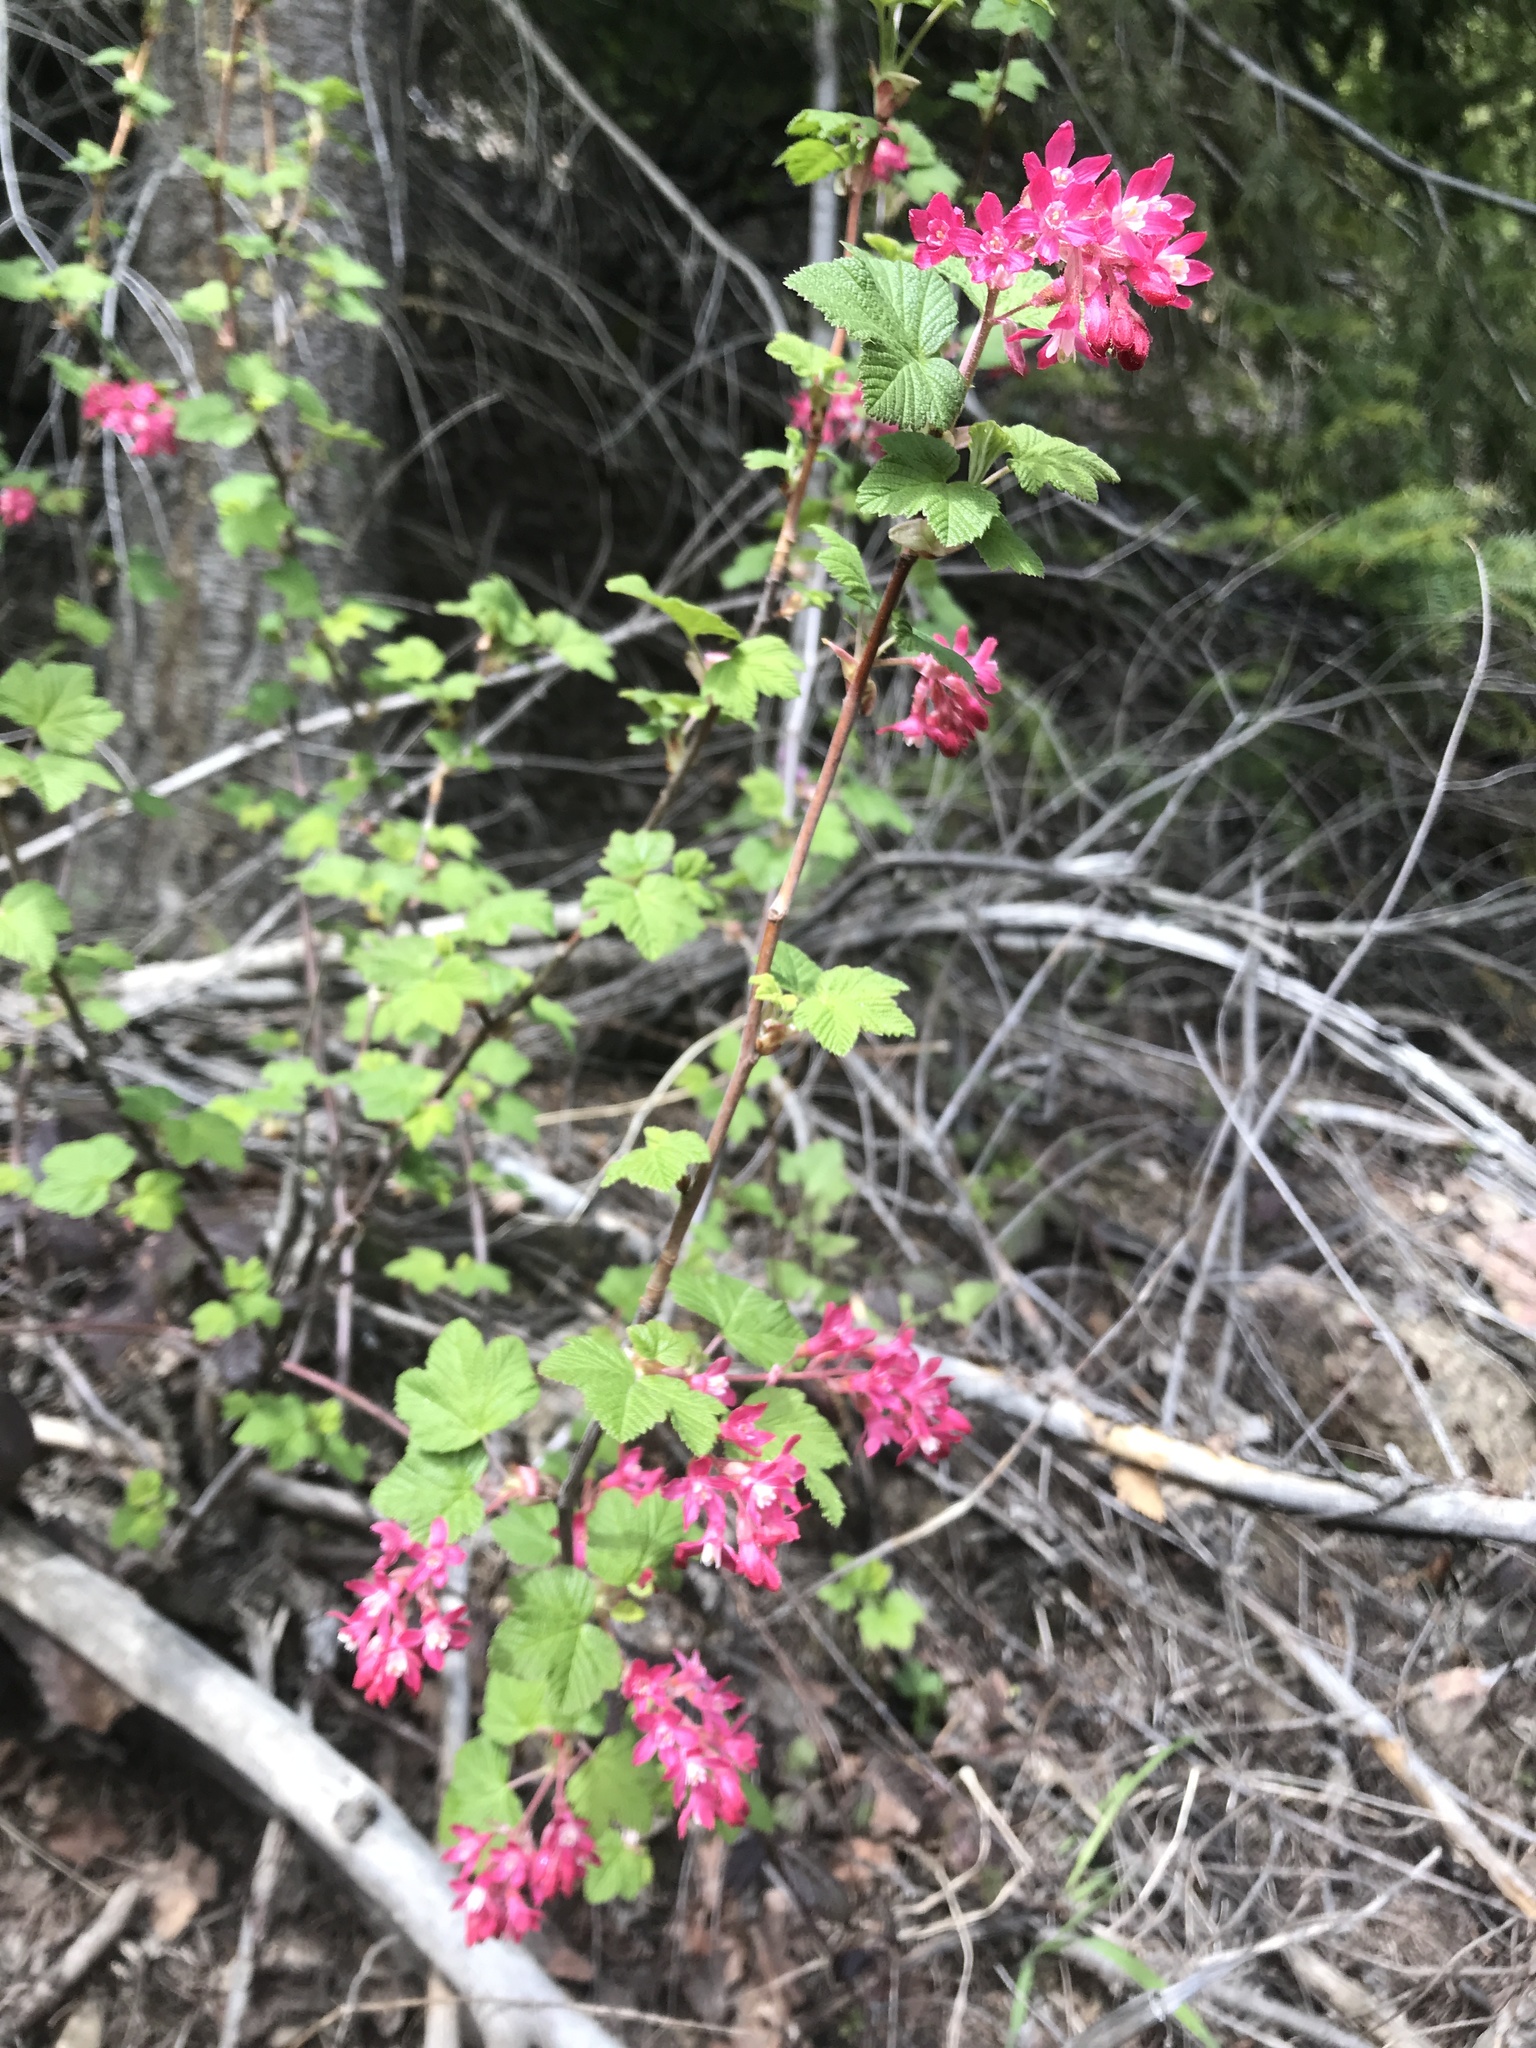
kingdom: Plantae
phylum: Tracheophyta
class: Magnoliopsida
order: Saxifragales
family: Grossulariaceae
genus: Ribes
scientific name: Ribes sanguineum
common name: Flowering currant
